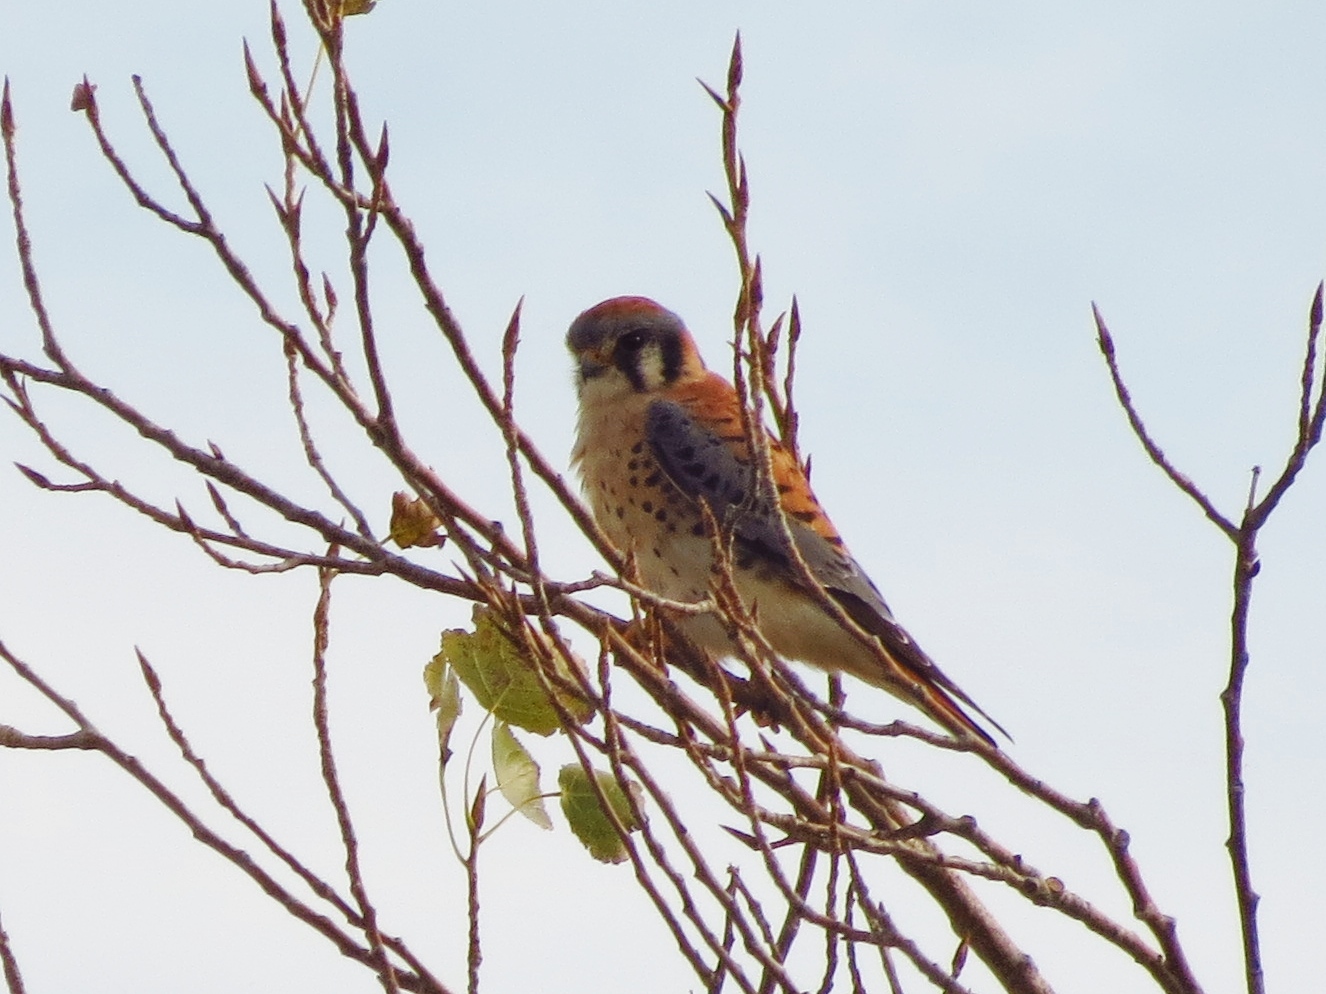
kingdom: Animalia
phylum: Chordata
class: Aves
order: Falconiformes
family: Falconidae
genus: Falco
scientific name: Falco sparverius
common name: American kestrel
